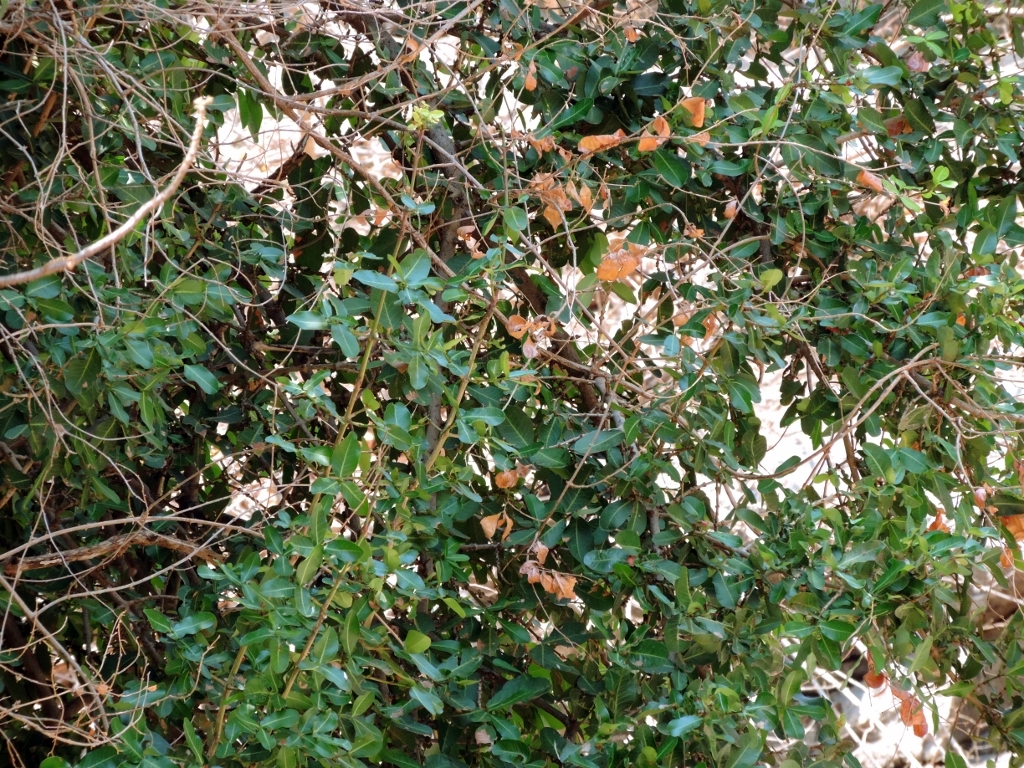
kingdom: Plantae
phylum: Tracheophyta
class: Magnoliopsida
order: Malpighiales
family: Clusiaceae
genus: Garcinia
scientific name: Garcinia livingstonei
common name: African mangosteen
